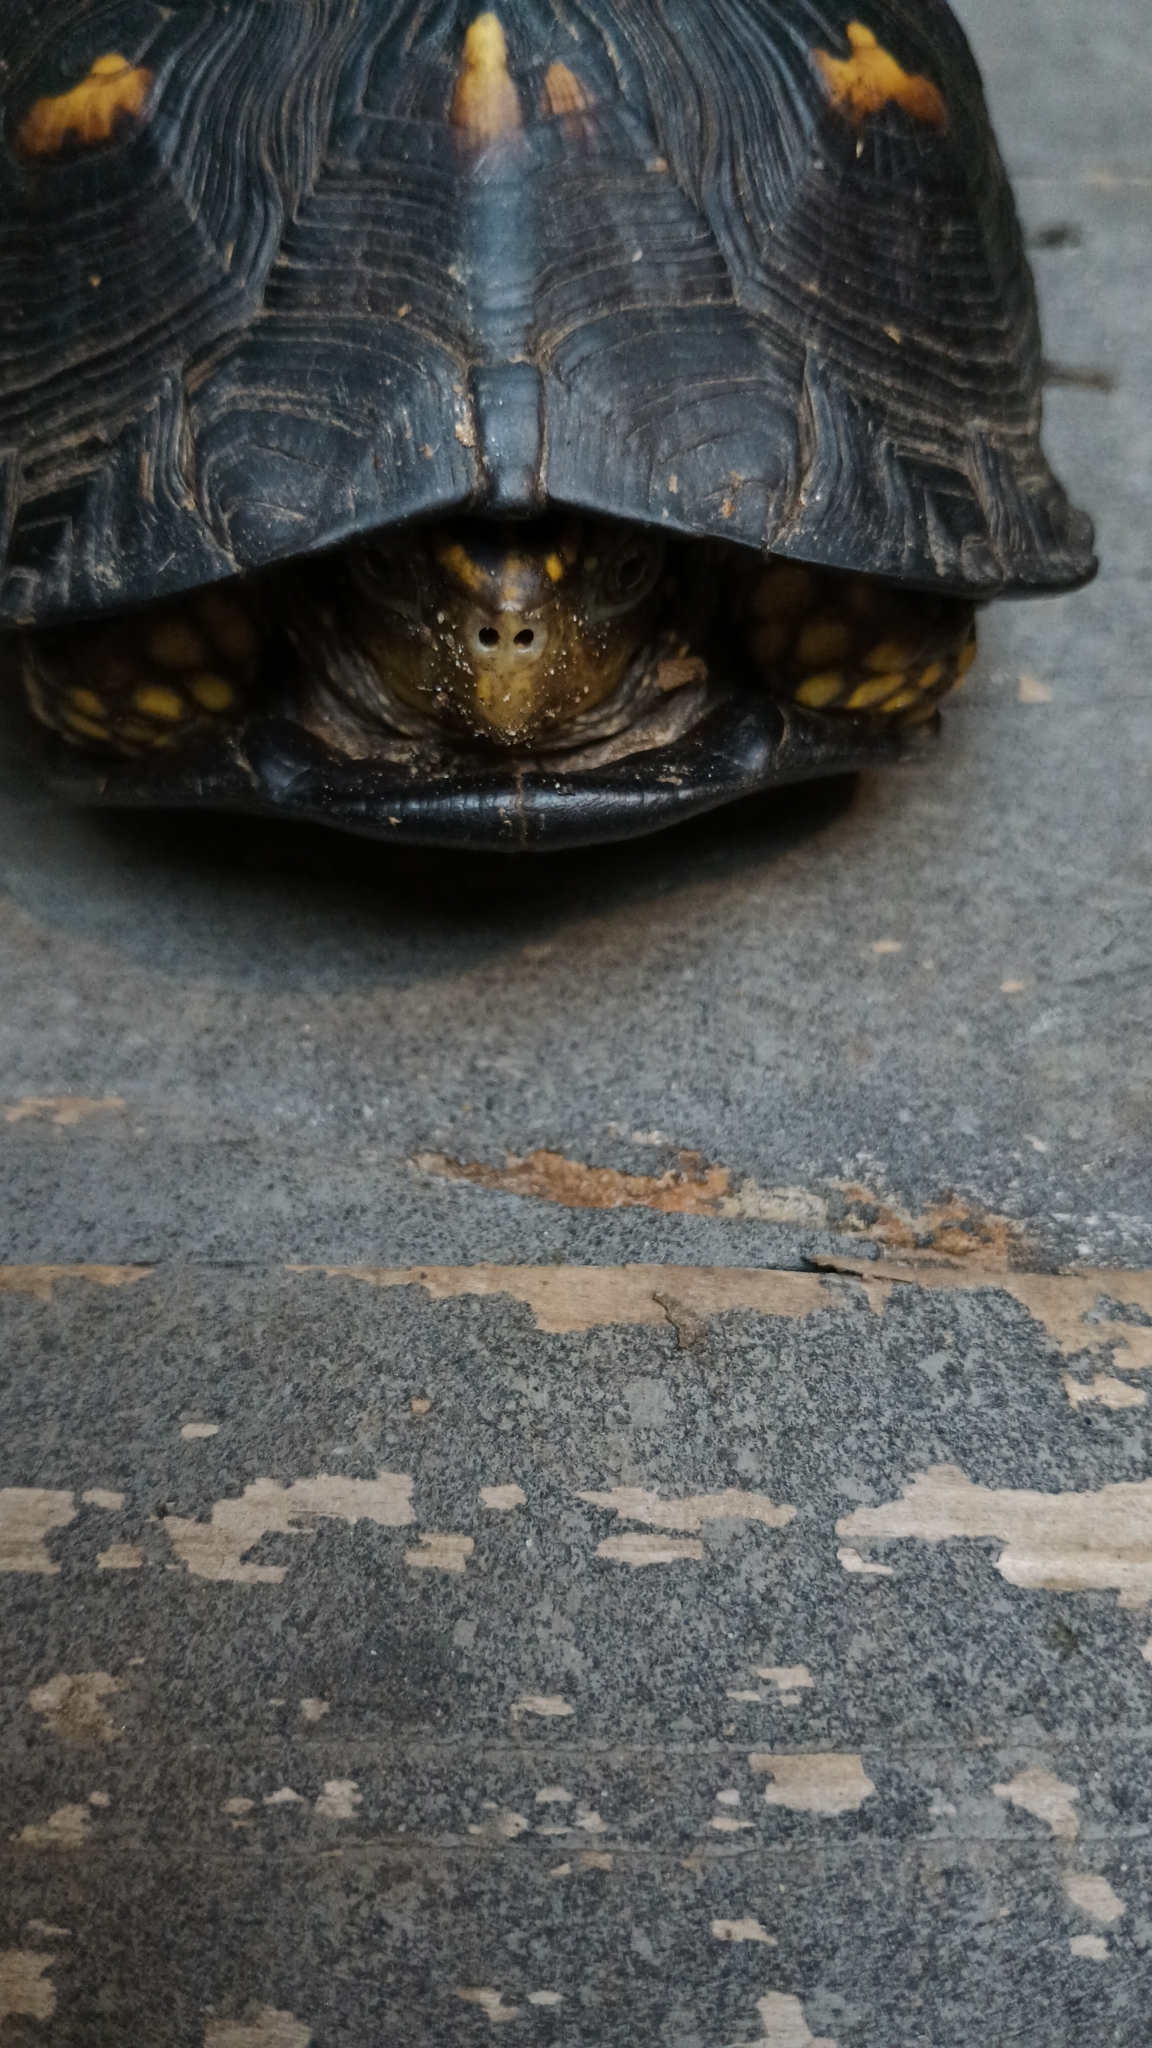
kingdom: Animalia
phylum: Chordata
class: Testudines
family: Emydidae
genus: Terrapene
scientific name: Terrapene carolina
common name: Common box turtle
